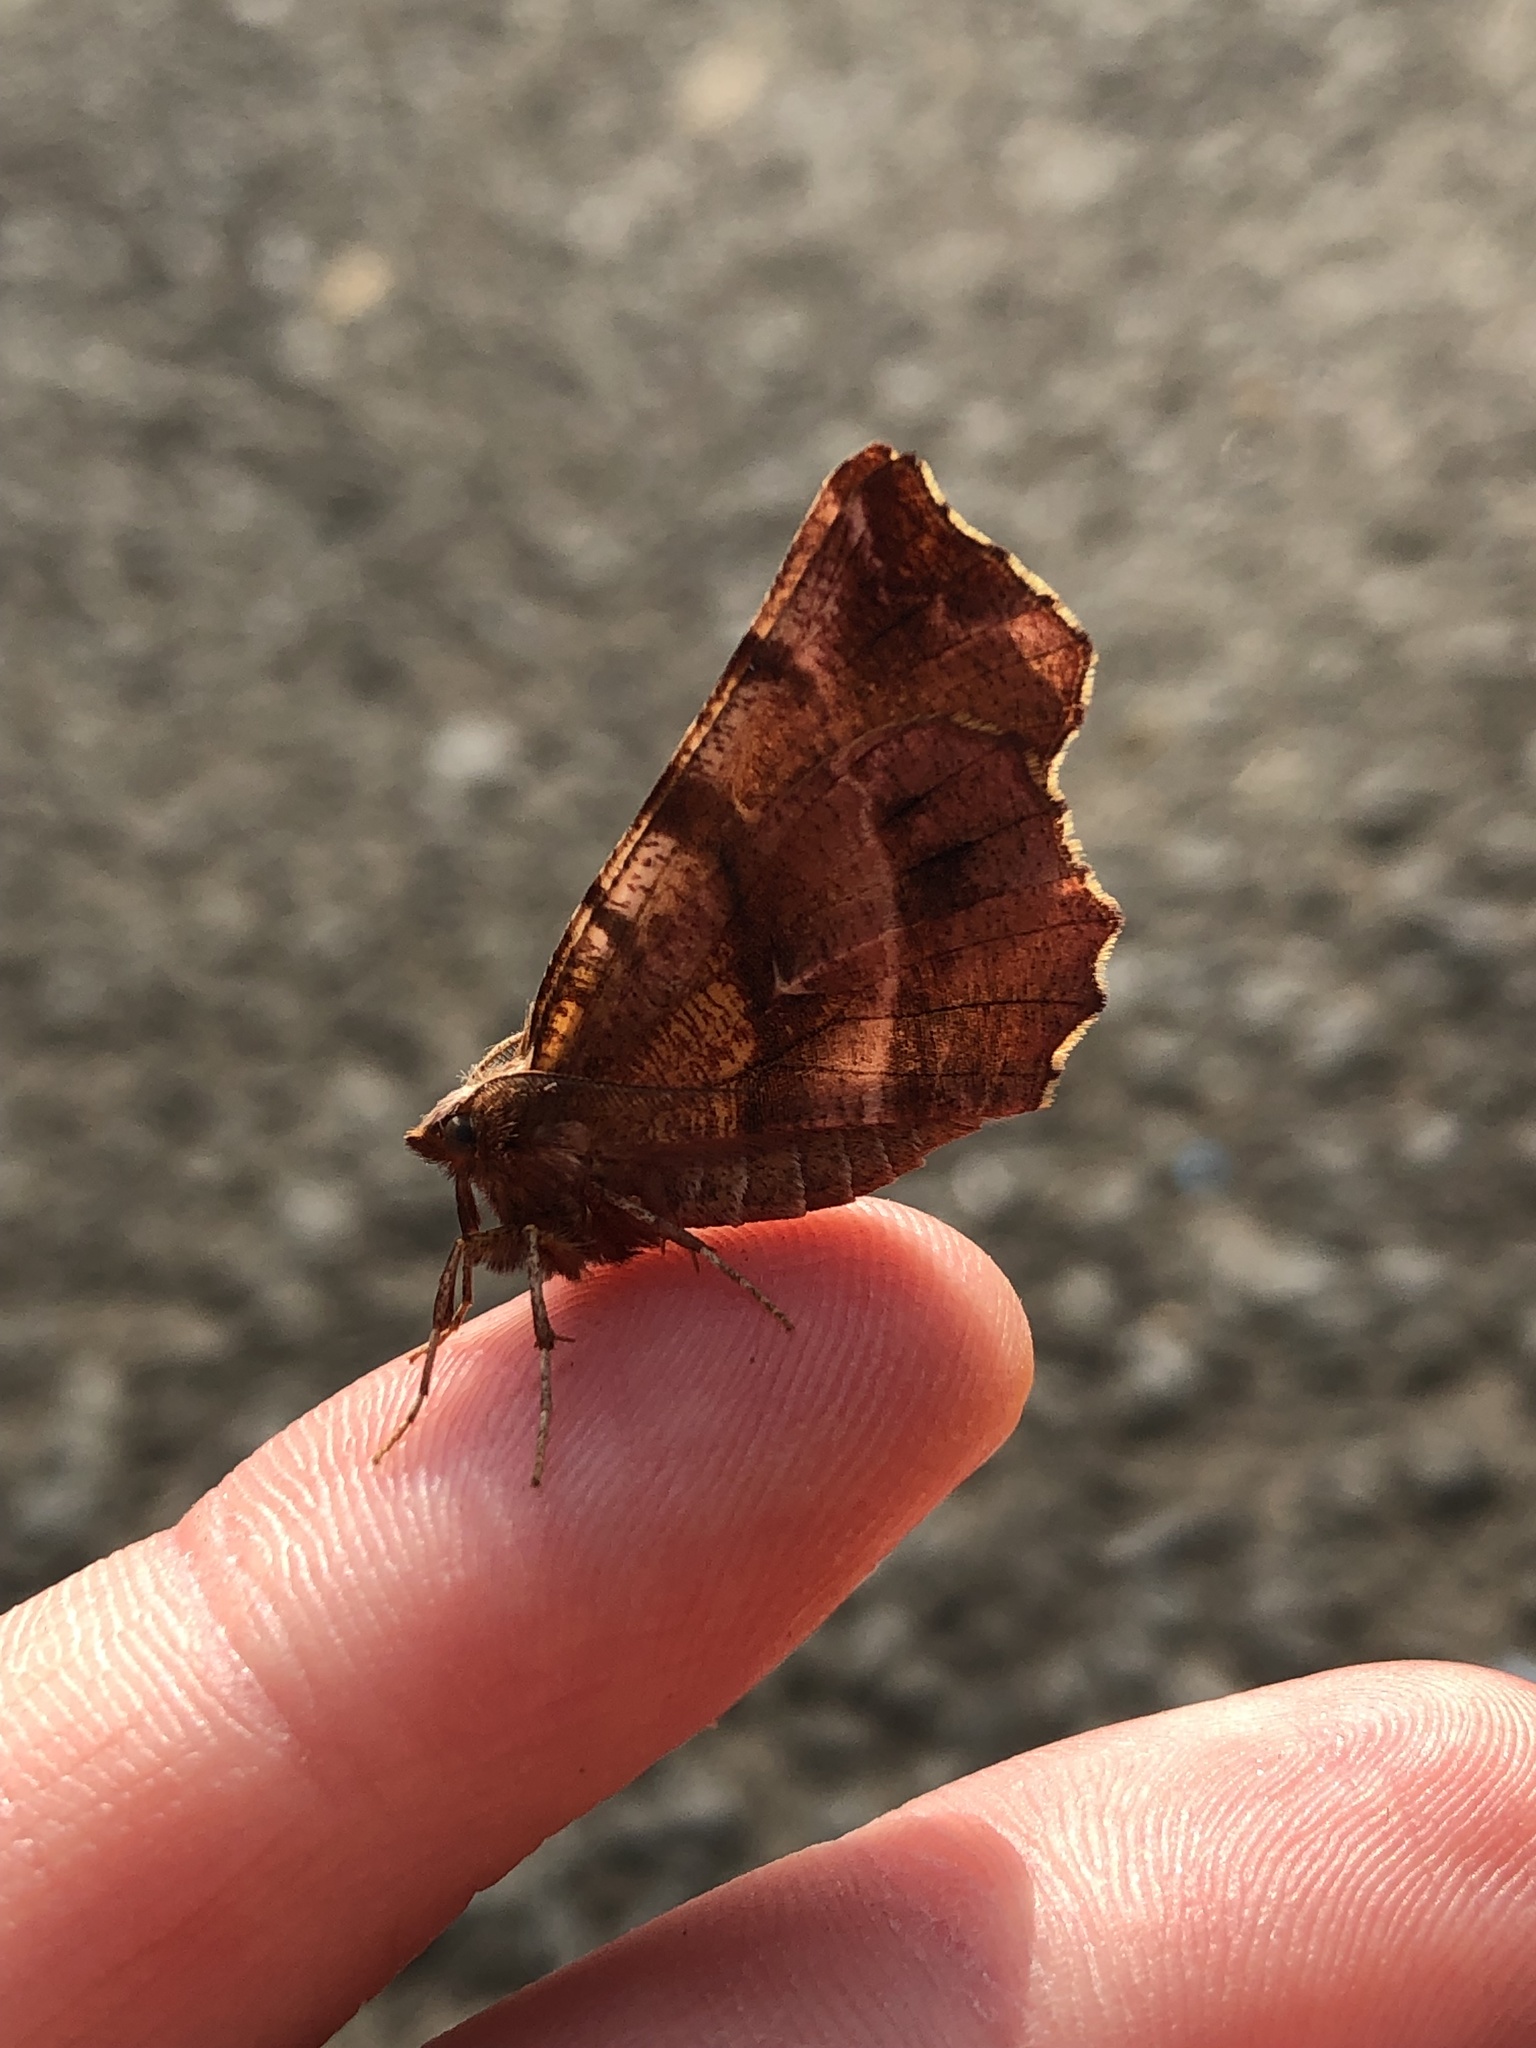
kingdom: Animalia
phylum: Arthropoda
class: Insecta
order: Lepidoptera
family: Geometridae
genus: Selenia
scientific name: Selenia dentaria
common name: Early thorn
